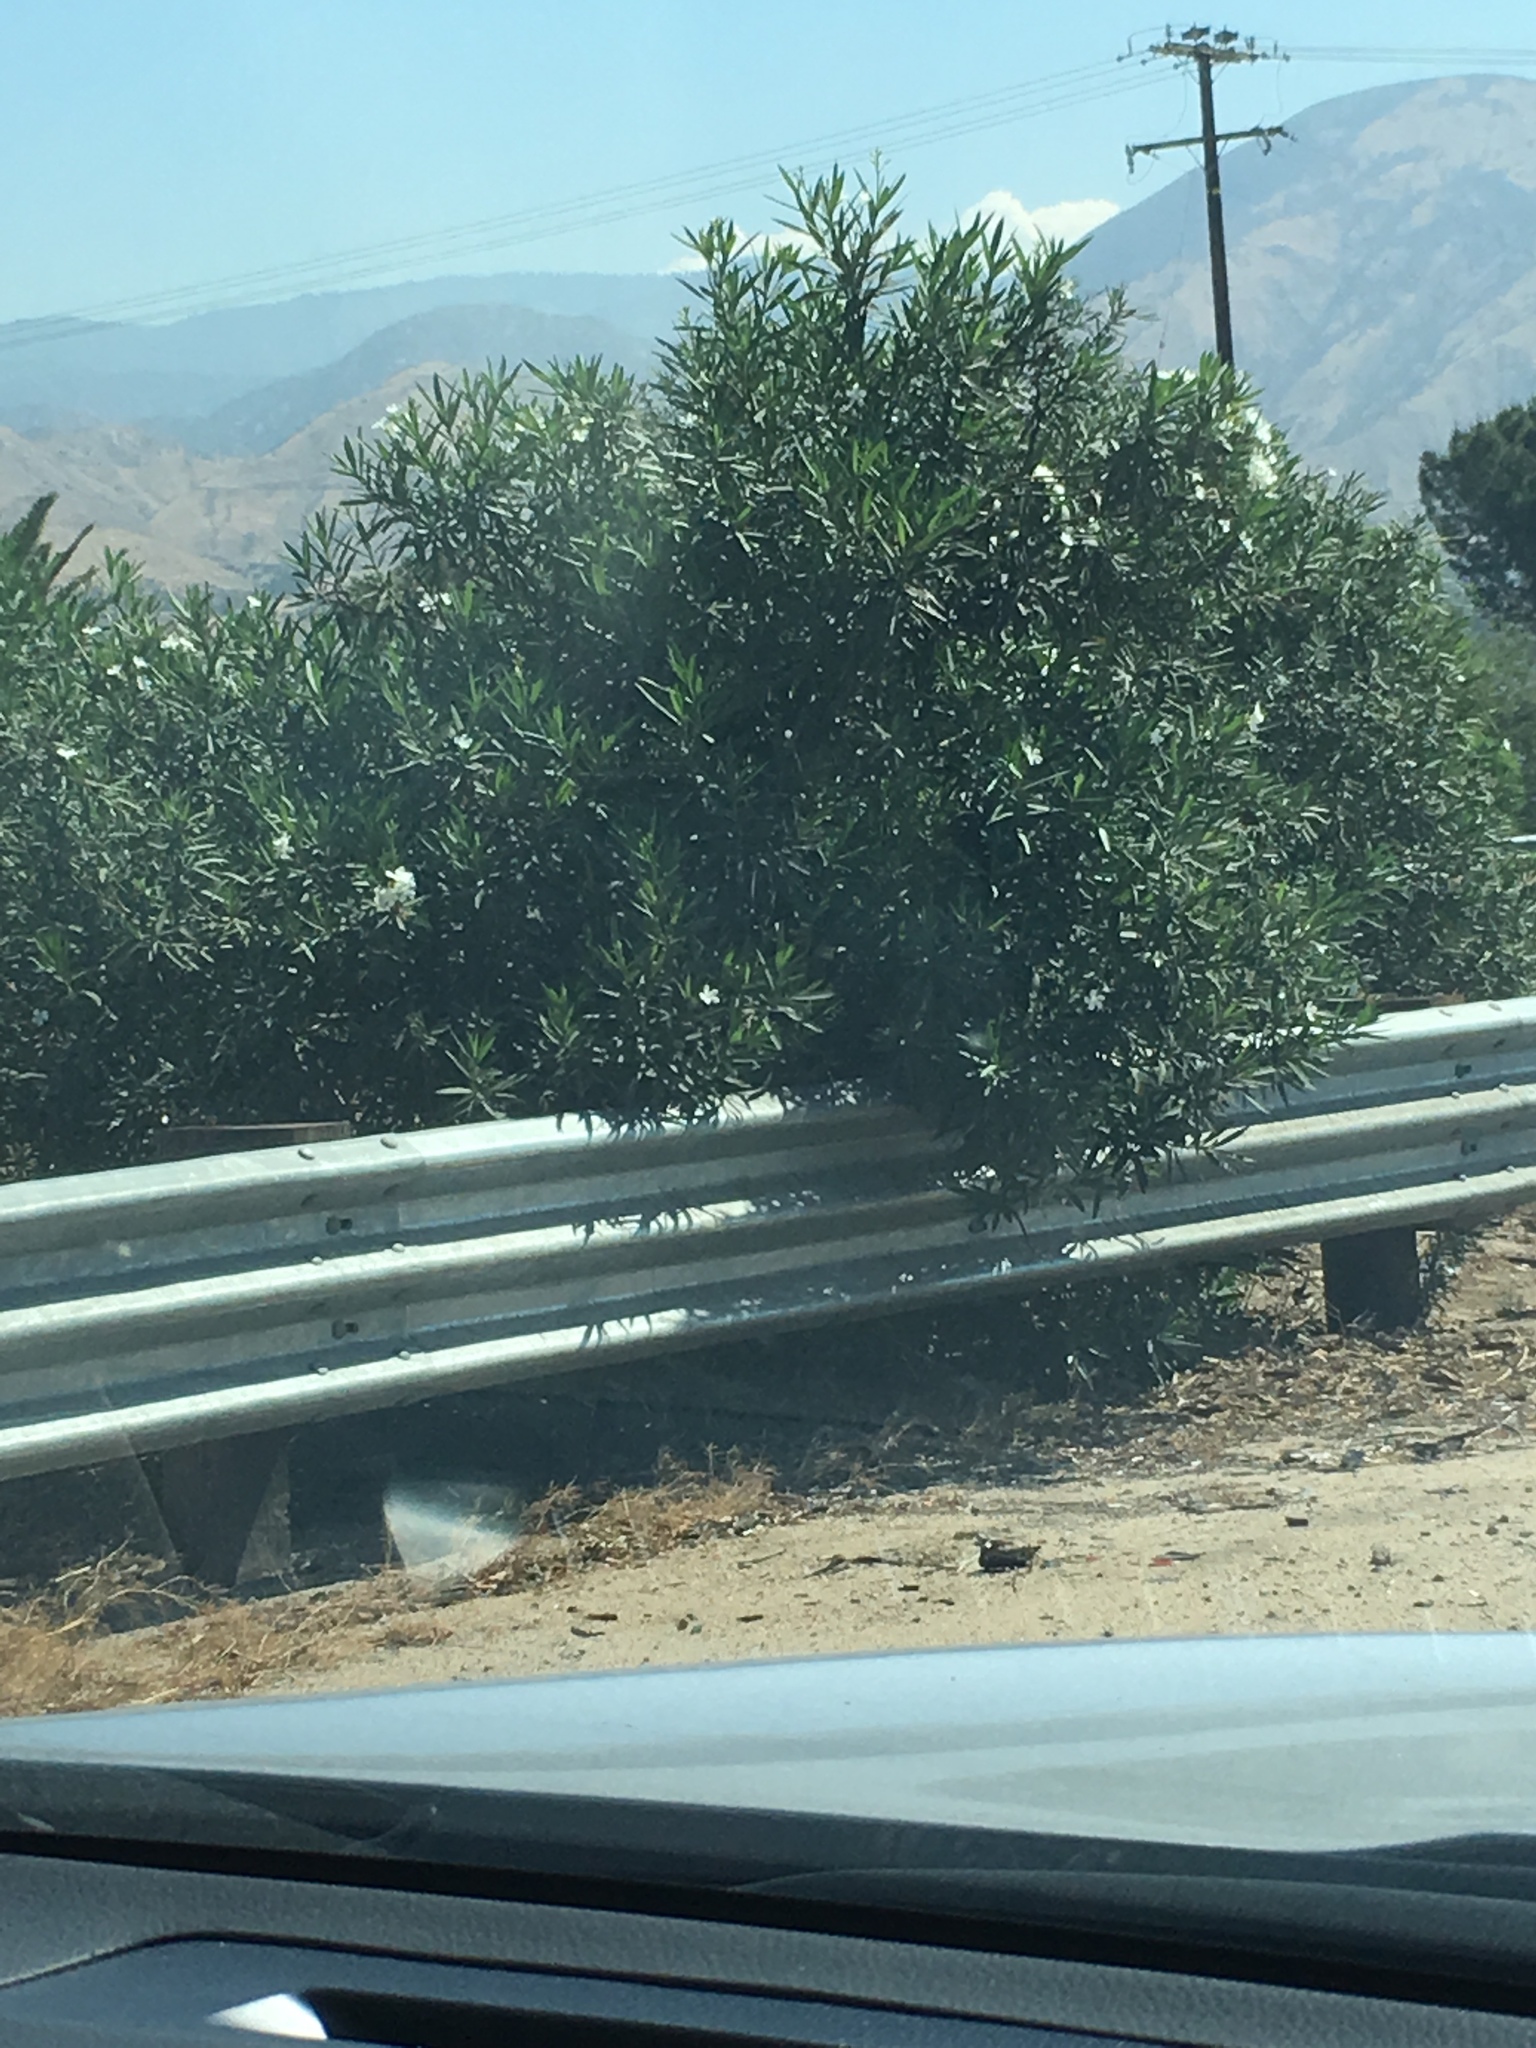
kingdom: Plantae
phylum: Tracheophyta
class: Magnoliopsida
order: Gentianales
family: Apocynaceae
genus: Nerium
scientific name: Nerium oleander
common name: Oleander
